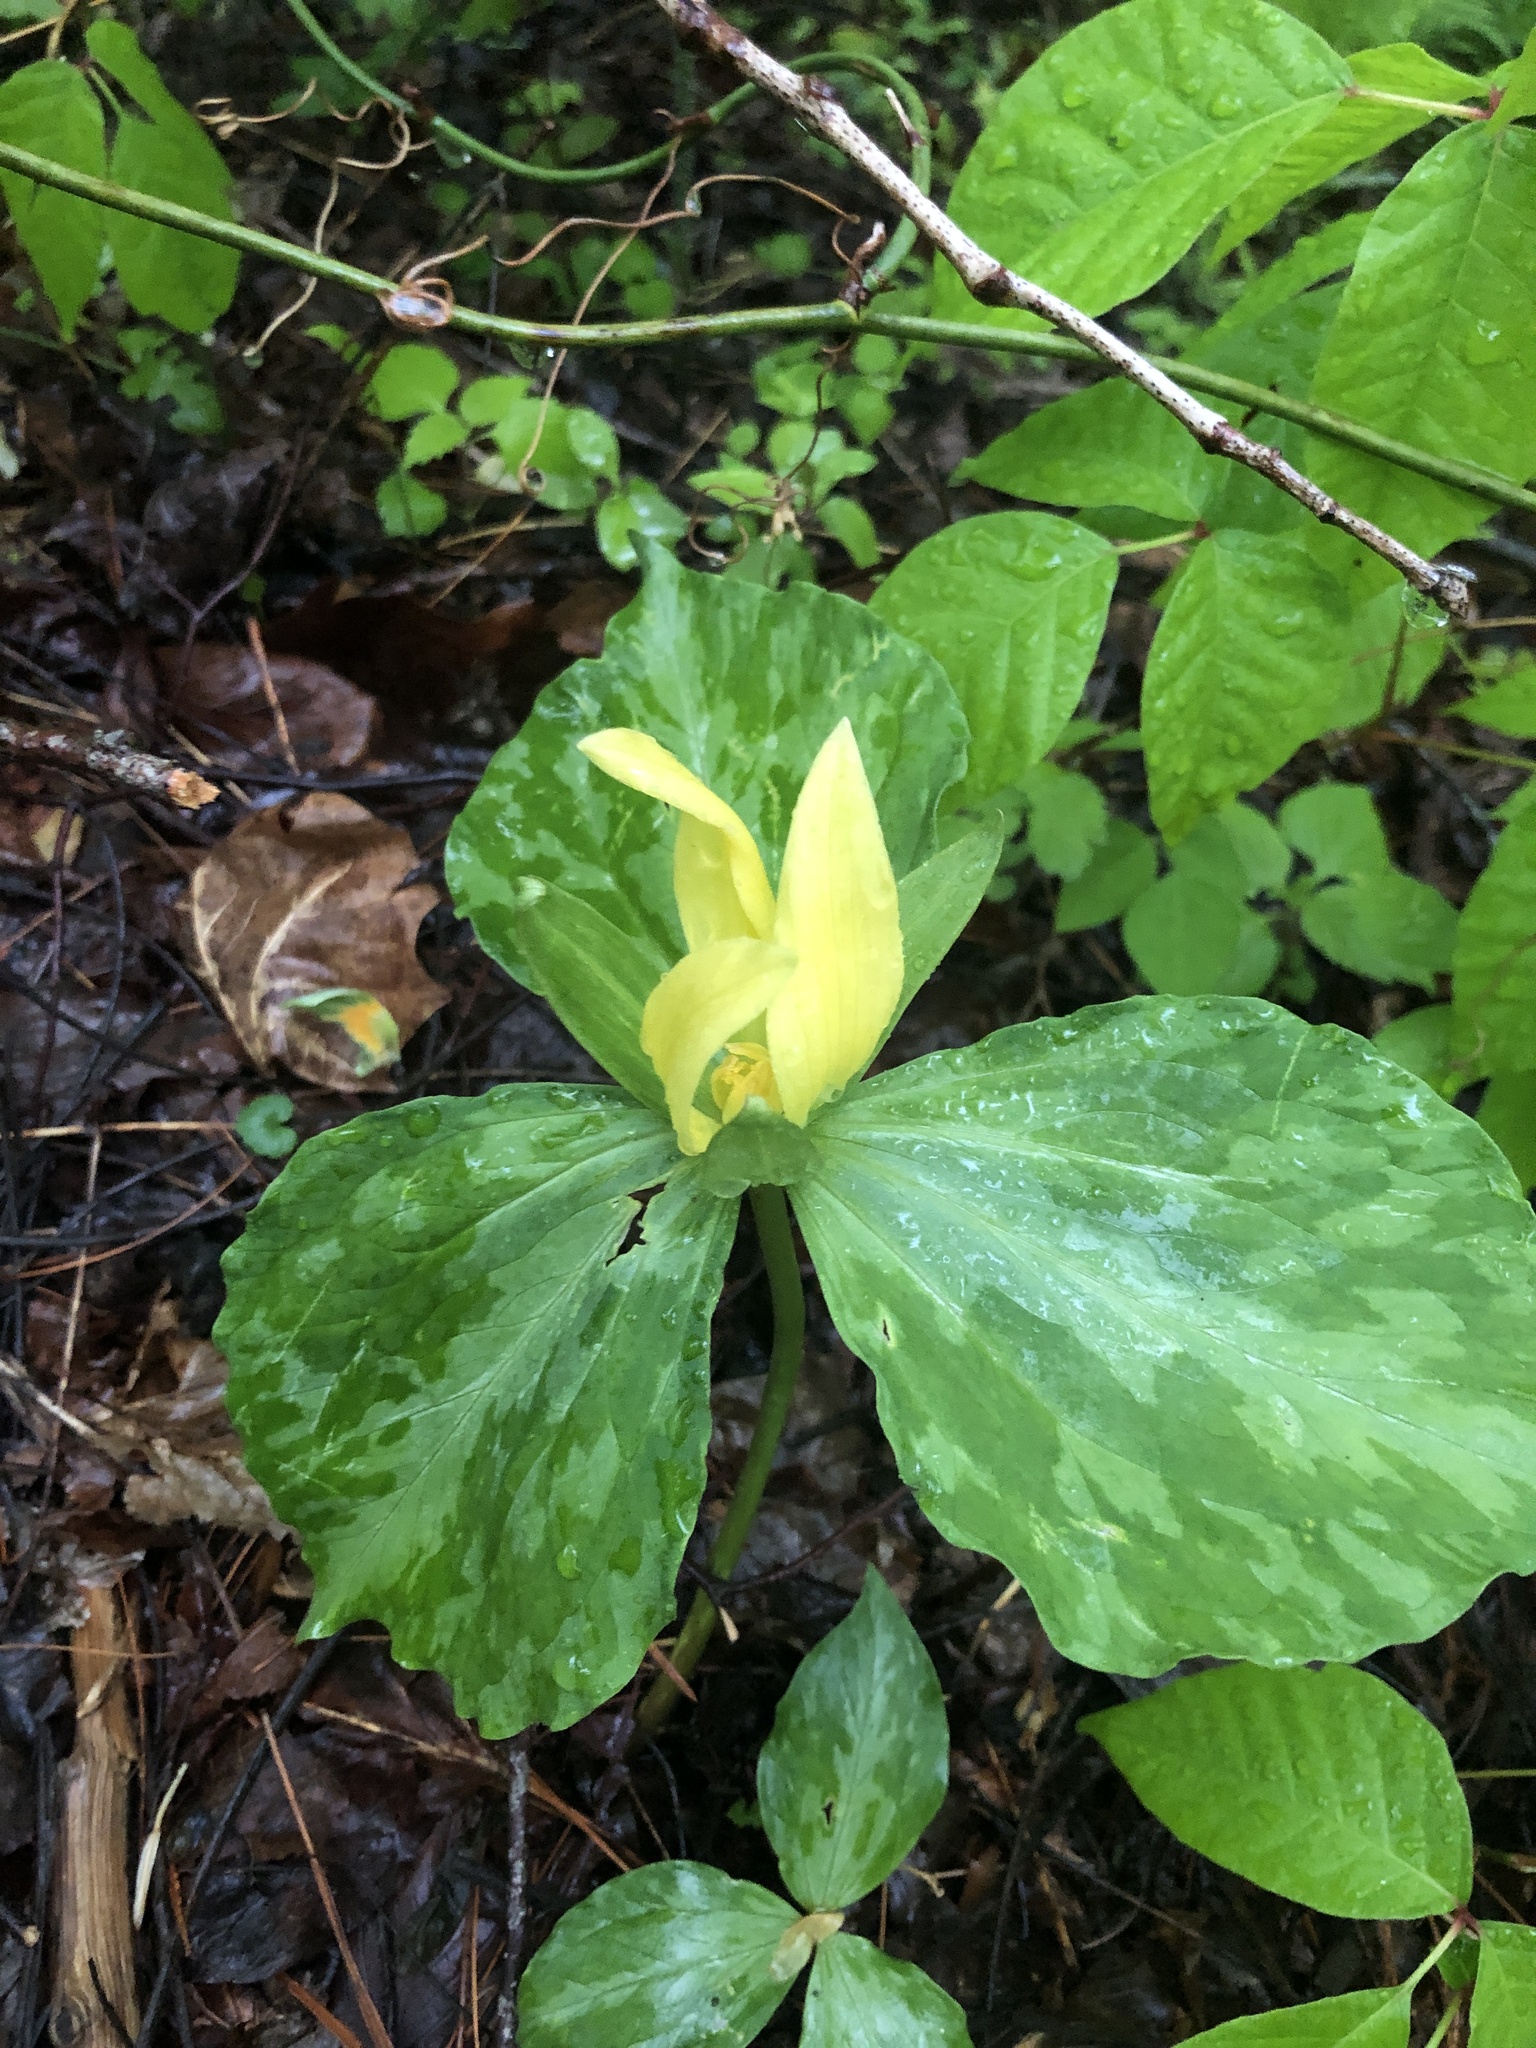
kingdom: Plantae
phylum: Tracheophyta
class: Liliopsida
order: Liliales
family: Melanthiaceae
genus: Trillium
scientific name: Trillium luteum
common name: Wax trillium
